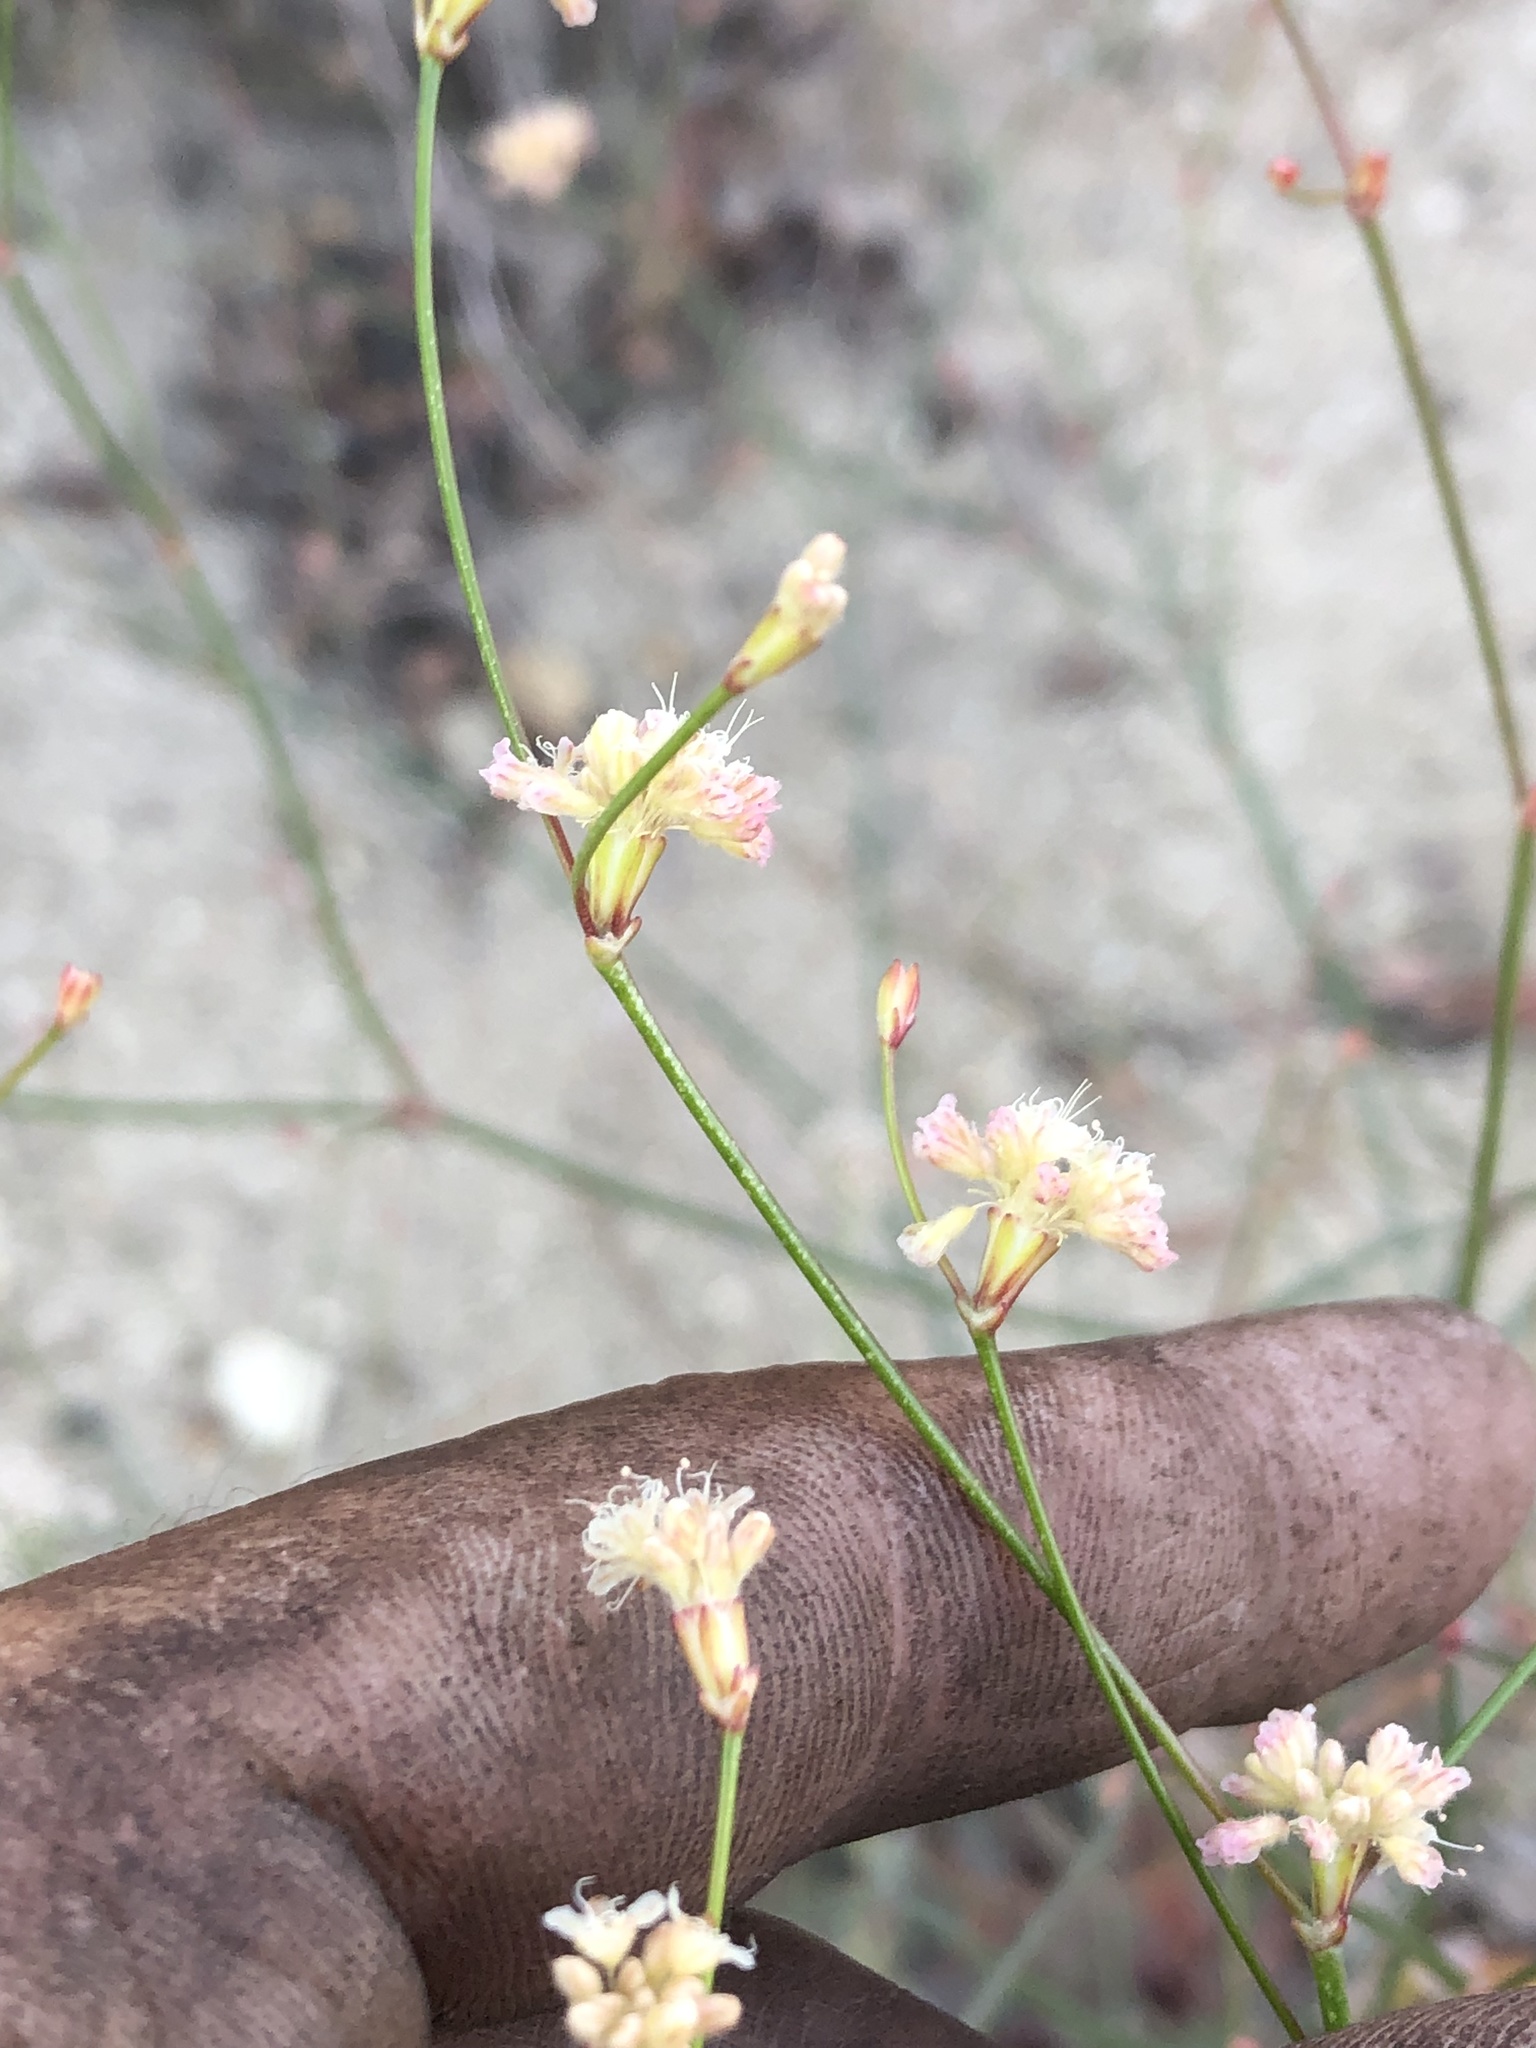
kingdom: Plantae
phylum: Tracheophyta
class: Magnoliopsida
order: Caryophyllales
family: Polygonaceae
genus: Eriogonum
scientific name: Eriogonum nudum
